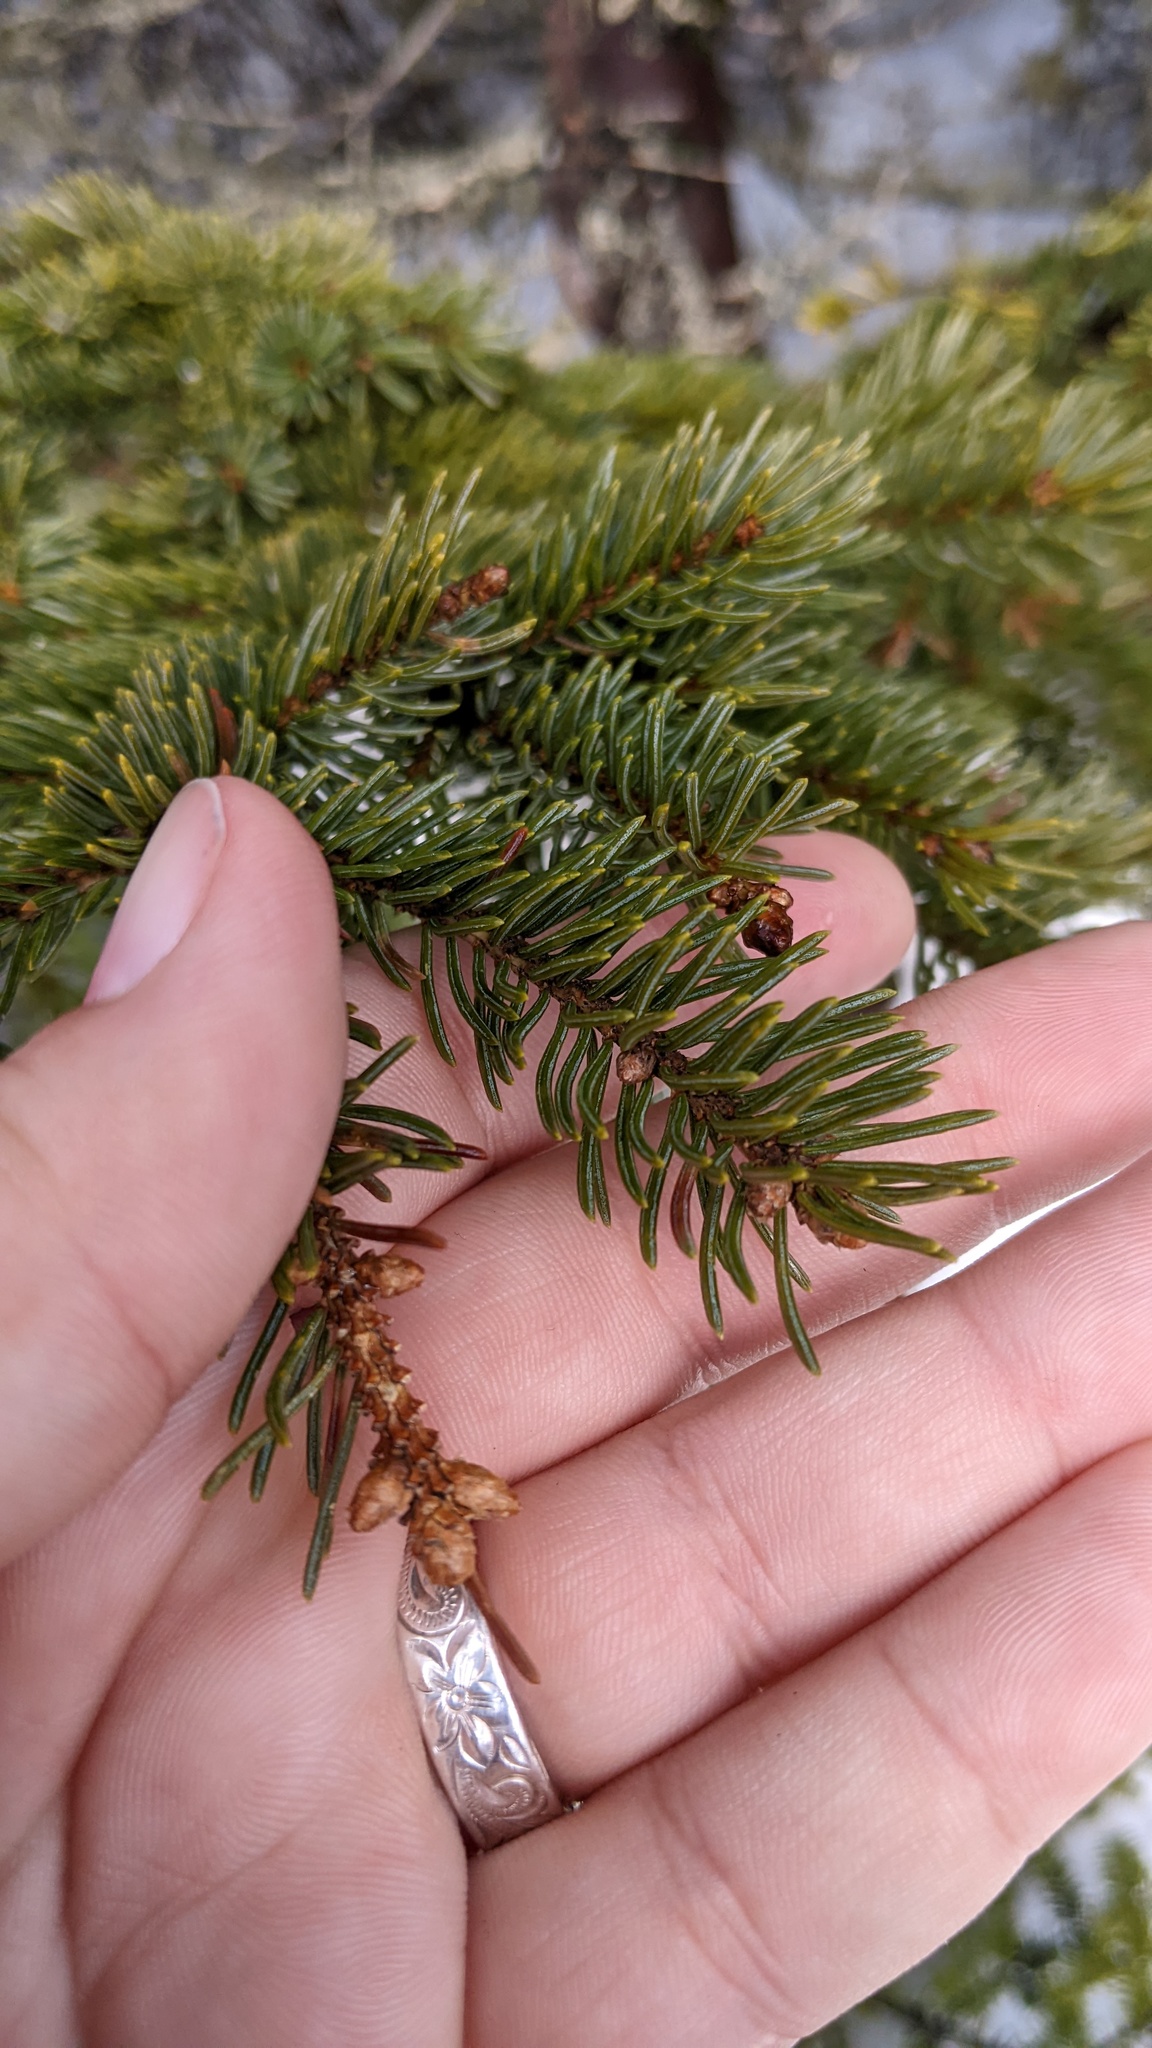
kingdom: Plantae
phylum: Tracheophyta
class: Pinopsida
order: Pinales
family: Pinaceae
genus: Picea
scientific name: Picea glauca
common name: White spruce
